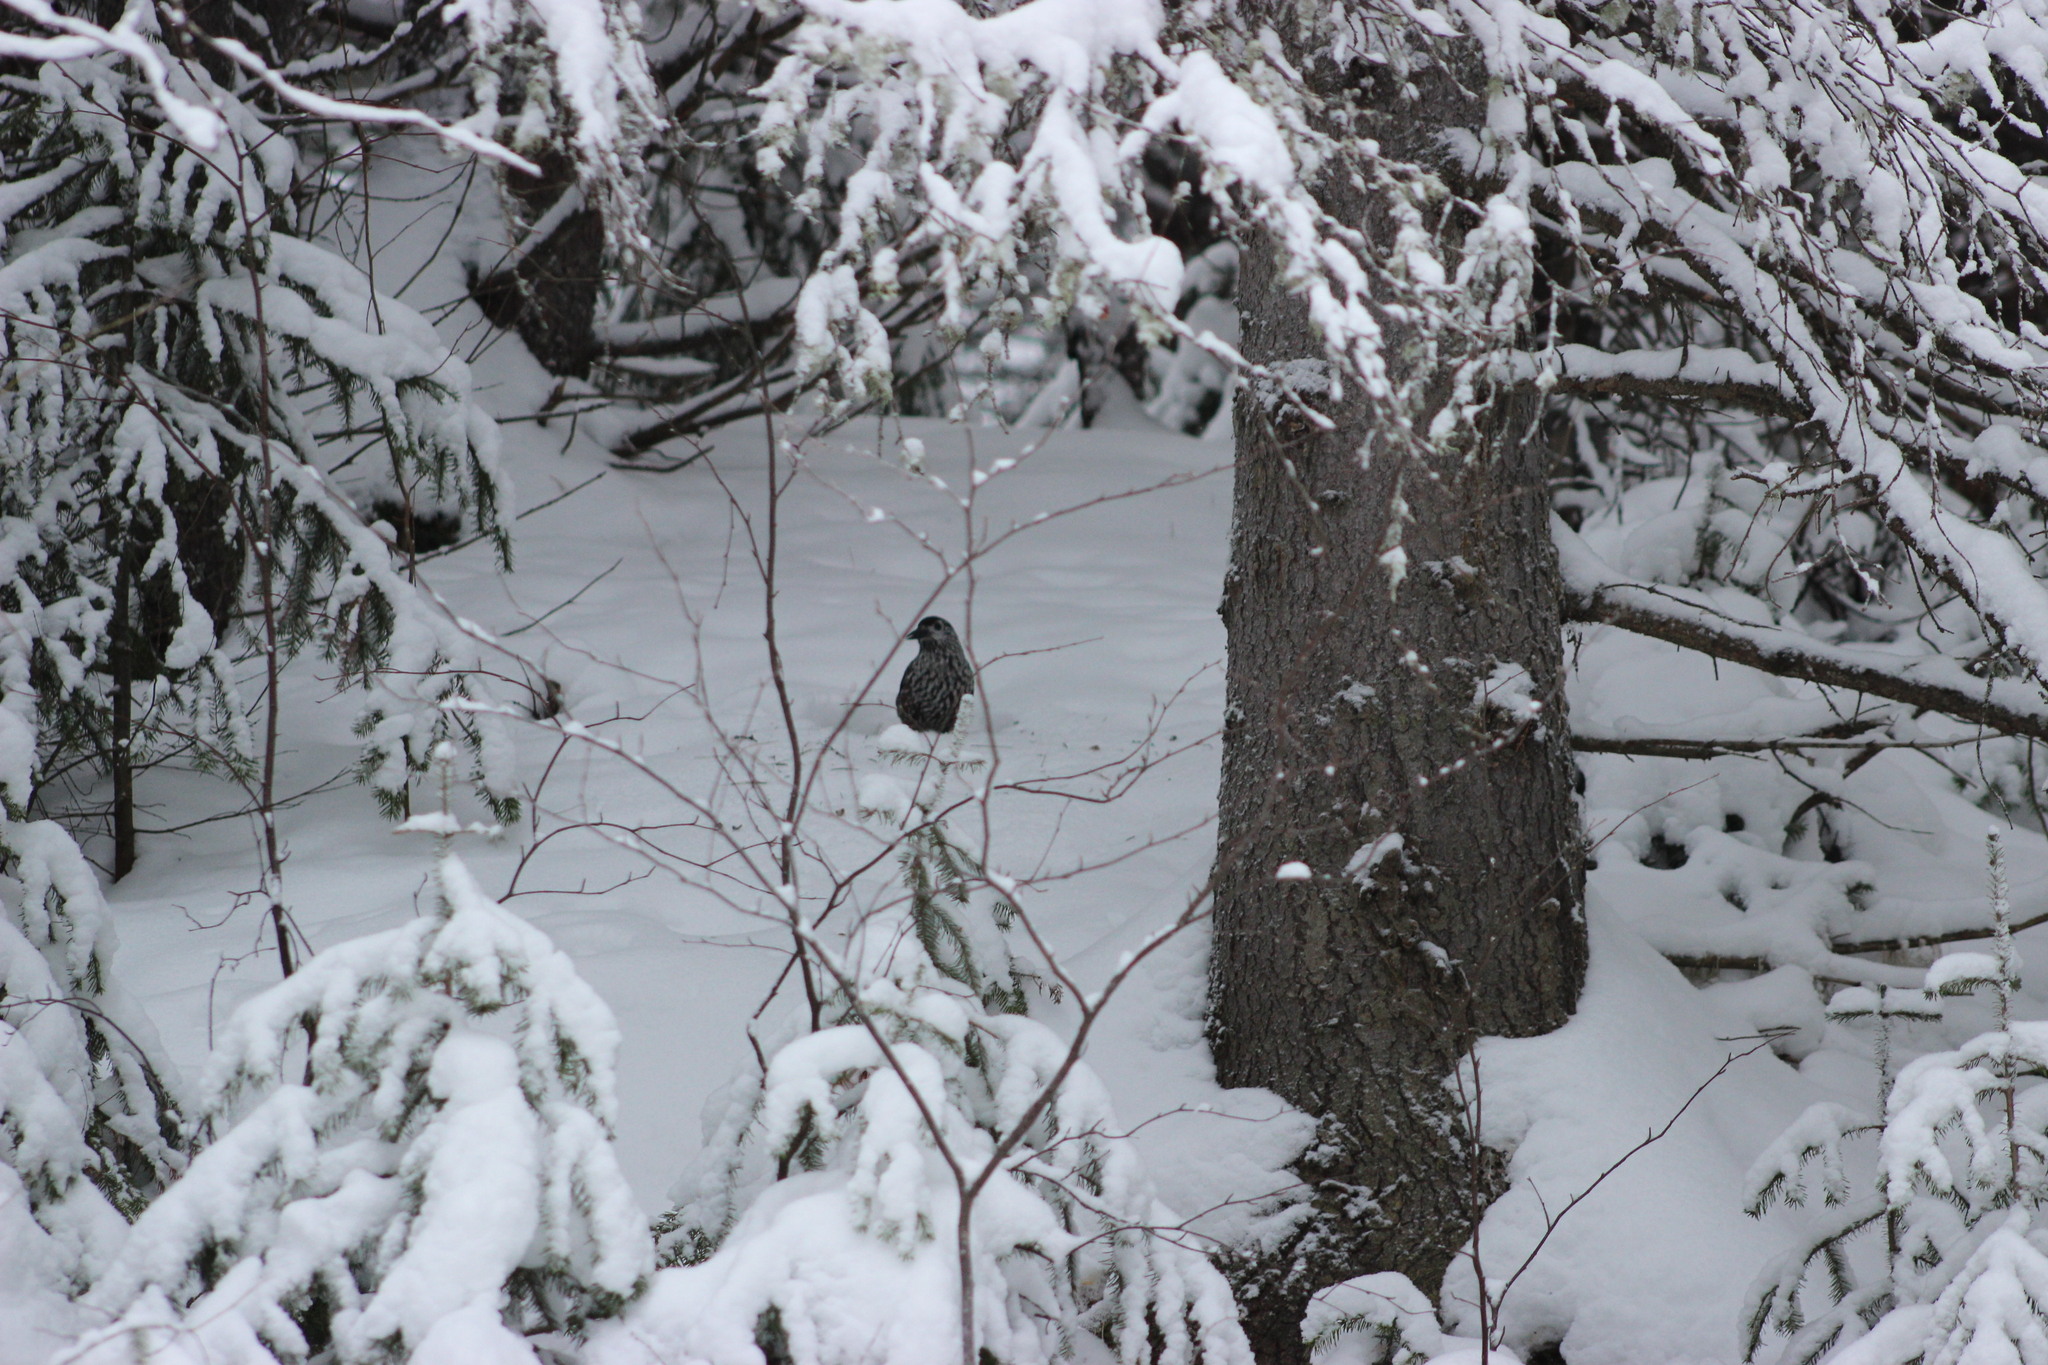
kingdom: Animalia
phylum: Chordata
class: Aves
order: Passeriformes
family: Corvidae
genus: Nucifraga
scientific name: Nucifraga caryocatactes
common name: Spotted nutcracker
